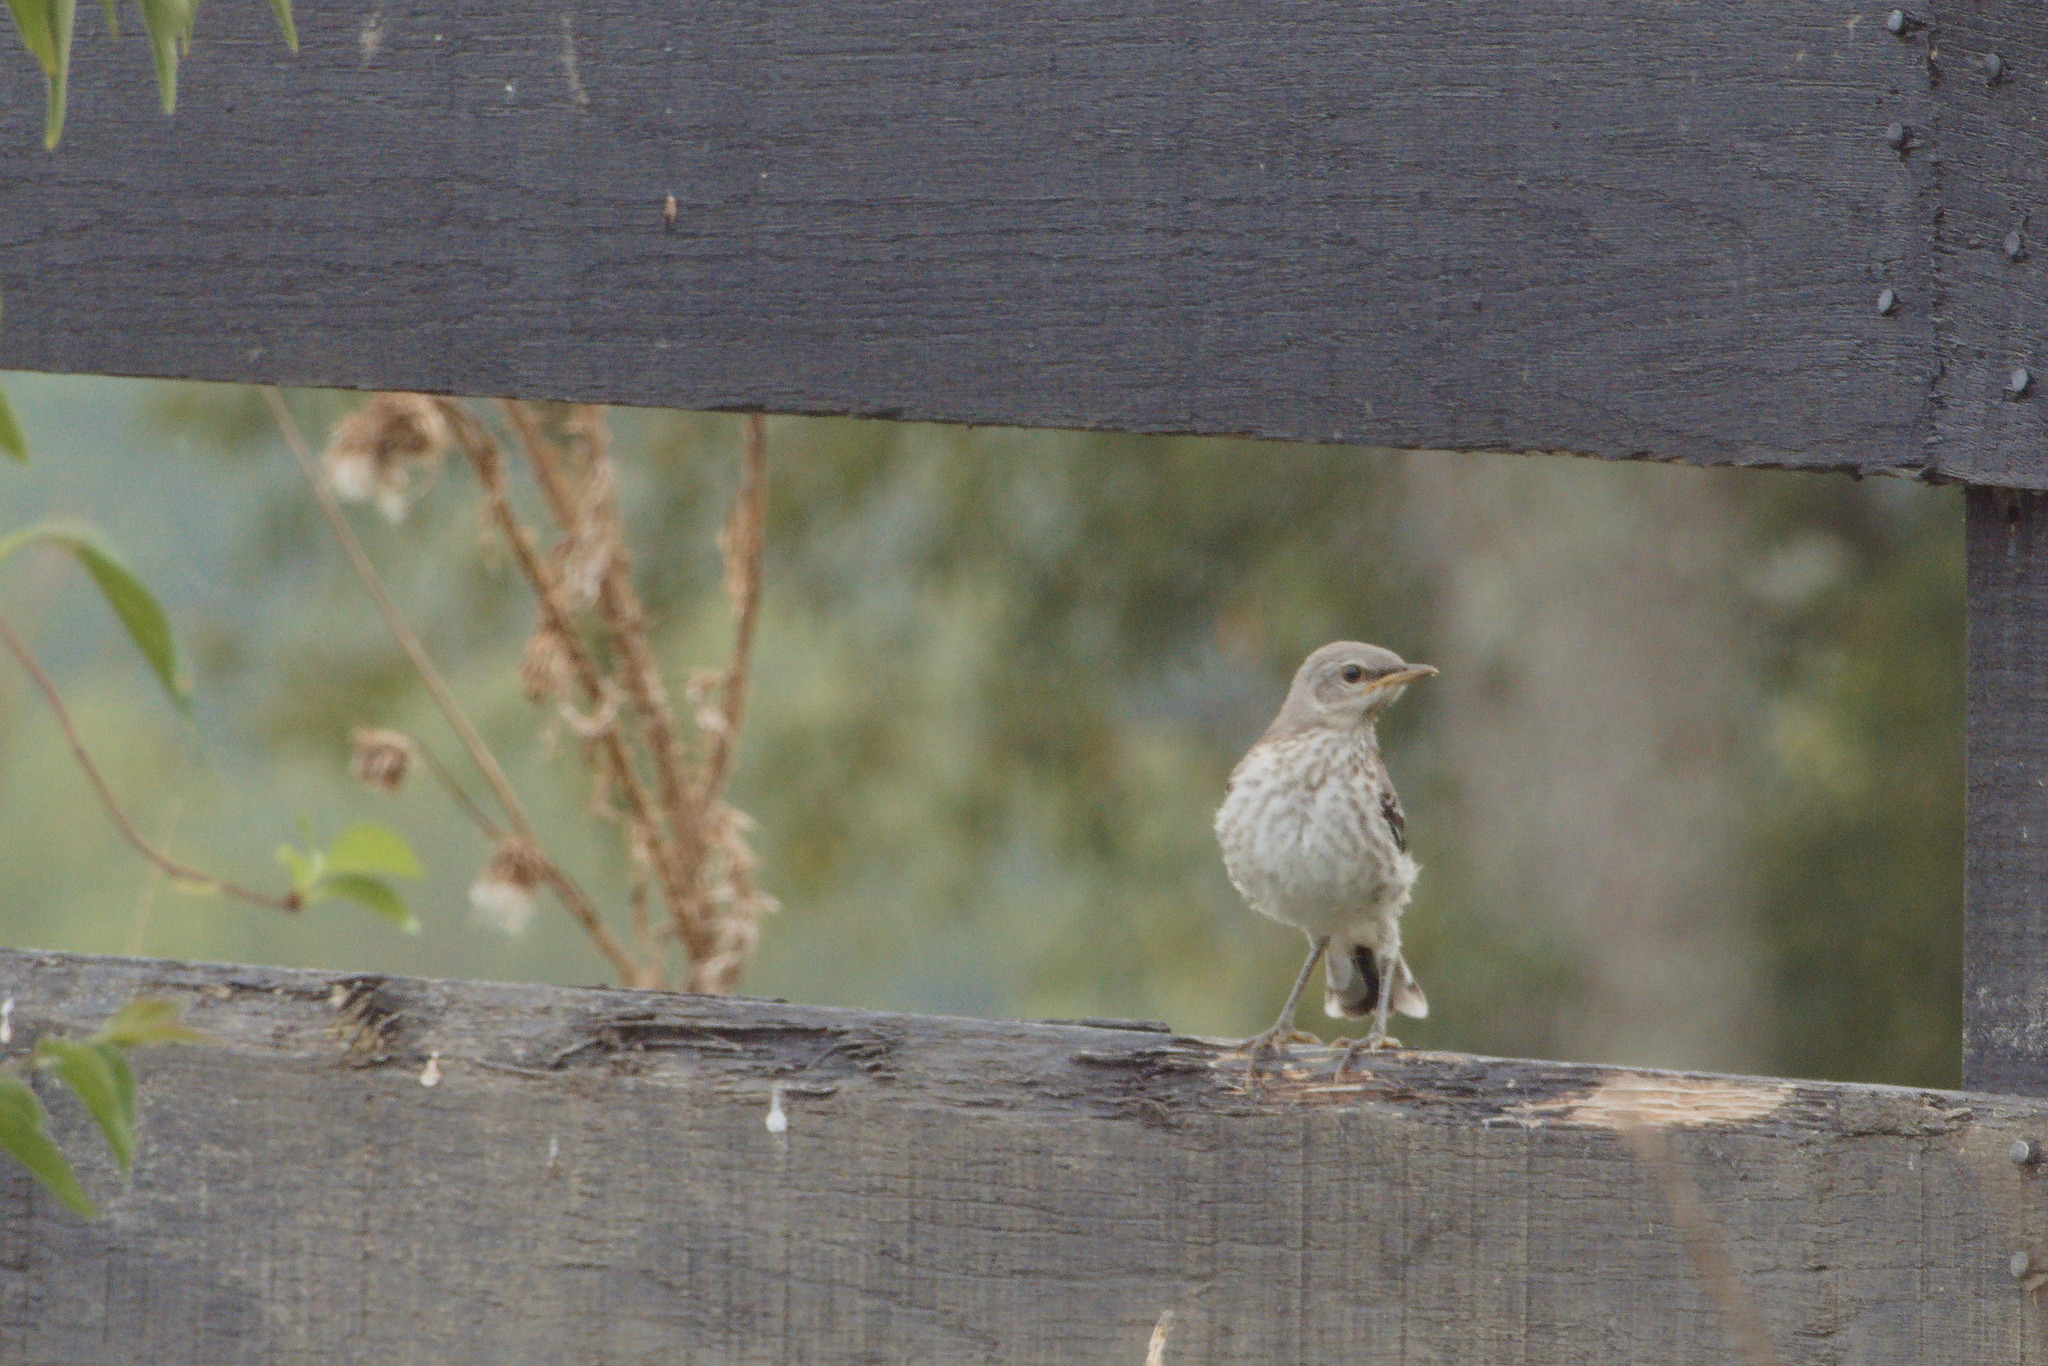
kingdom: Animalia
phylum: Chordata
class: Aves
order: Passeriformes
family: Mimidae
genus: Mimus
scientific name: Mimus polyglottos
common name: Northern mockingbird
